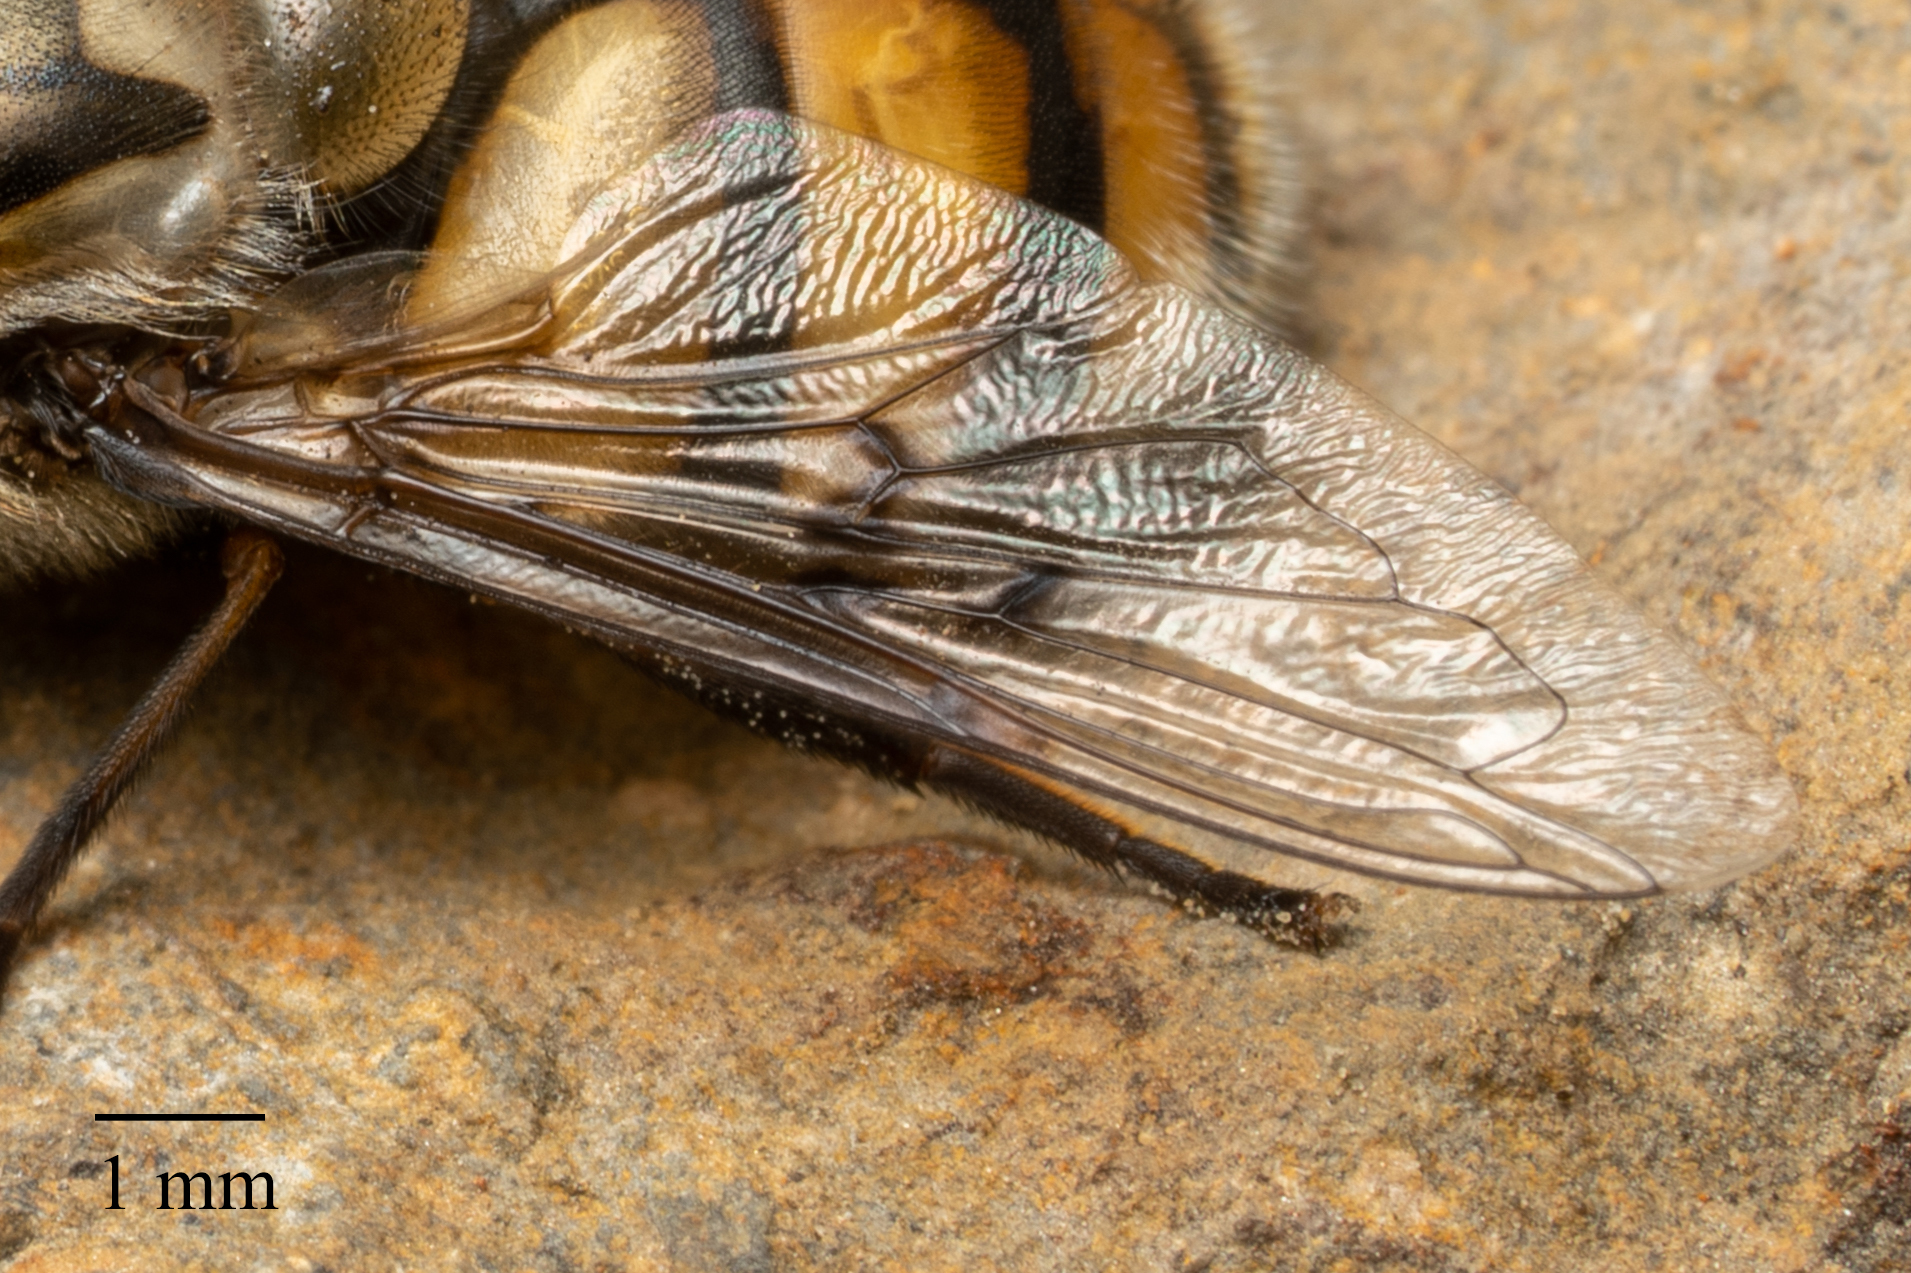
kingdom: Animalia
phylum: Arthropoda
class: Insecta
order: Diptera
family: Syrphidae
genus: Copestylum
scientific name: Copestylum avidum
